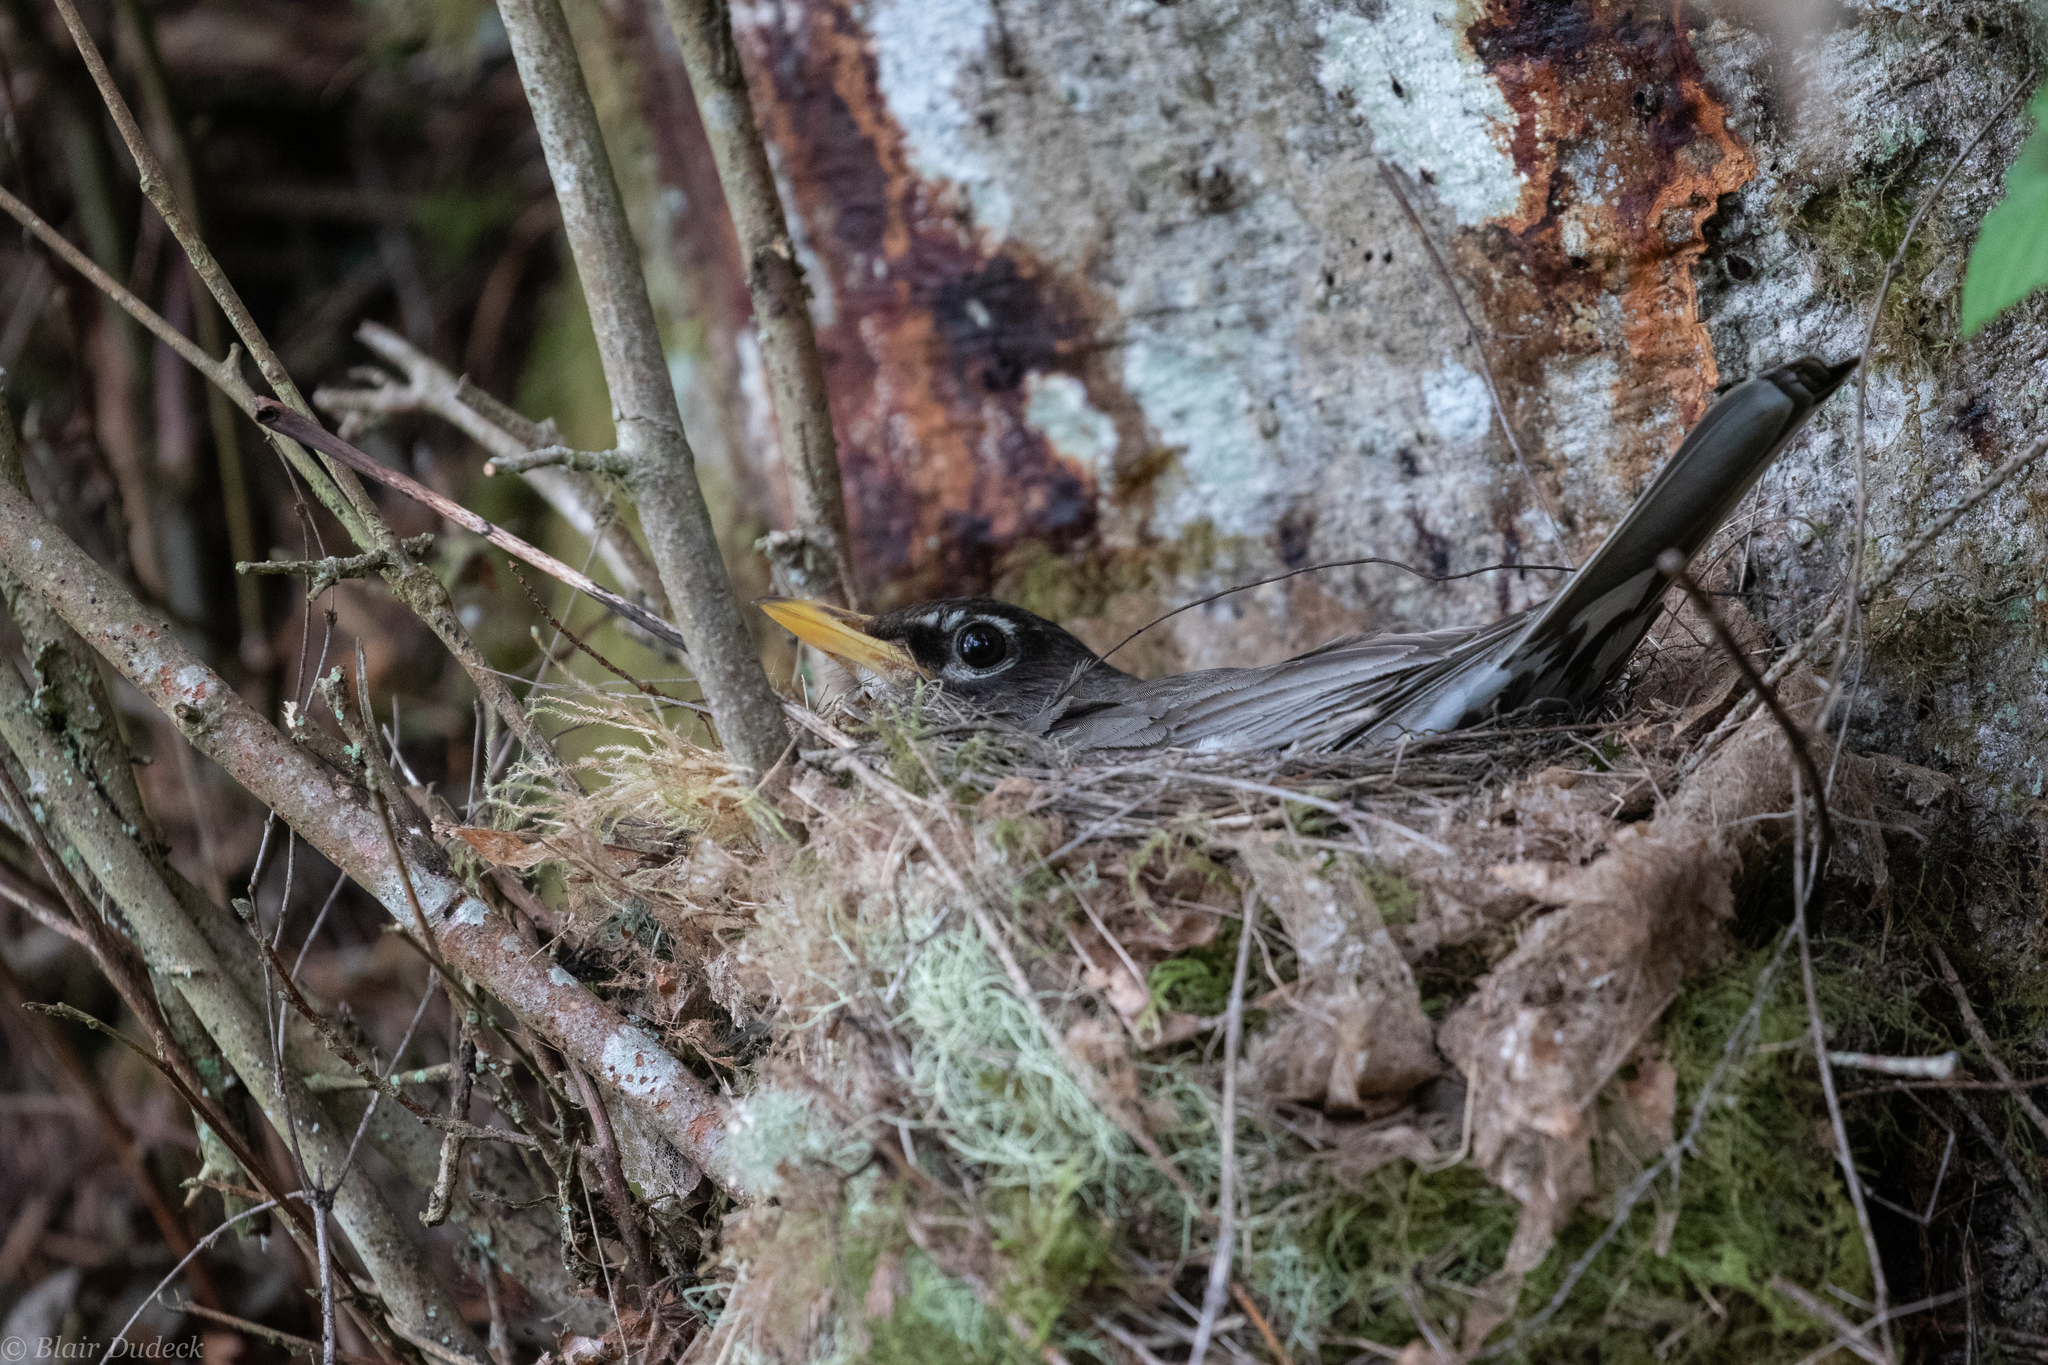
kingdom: Animalia
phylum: Chordata
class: Aves
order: Passeriformes
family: Turdidae
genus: Turdus
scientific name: Turdus migratorius
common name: American robin
